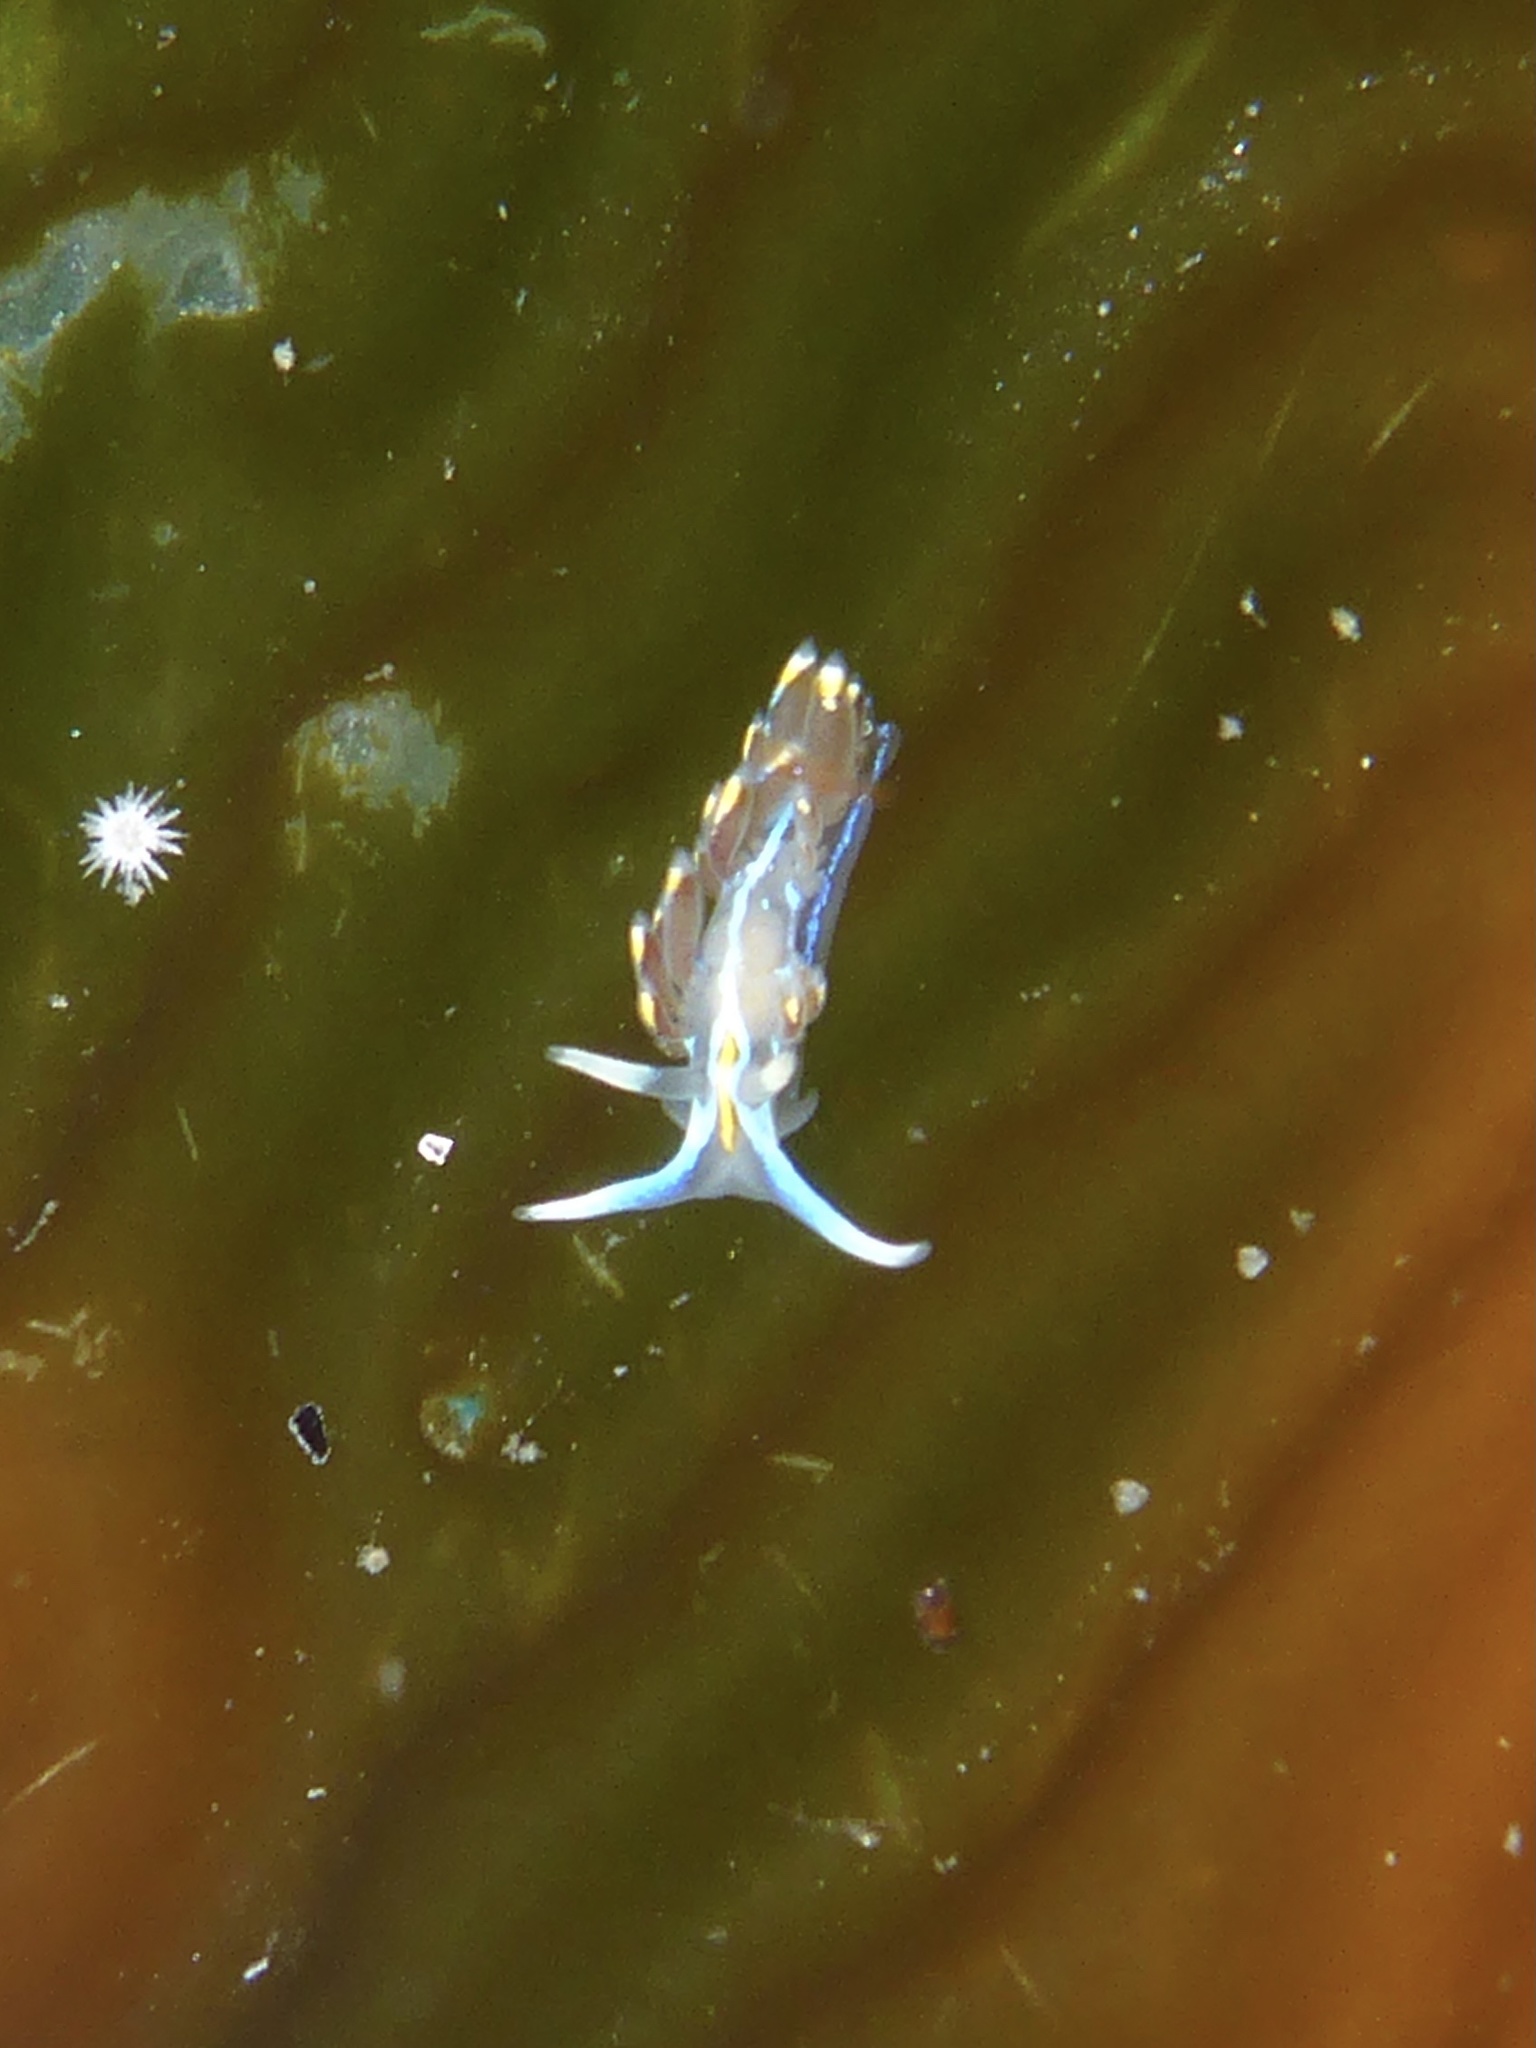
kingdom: Animalia
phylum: Mollusca
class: Gastropoda
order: Nudibranchia
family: Myrrhinidae
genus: Hermissenda
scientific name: Hermissenda opalescens
